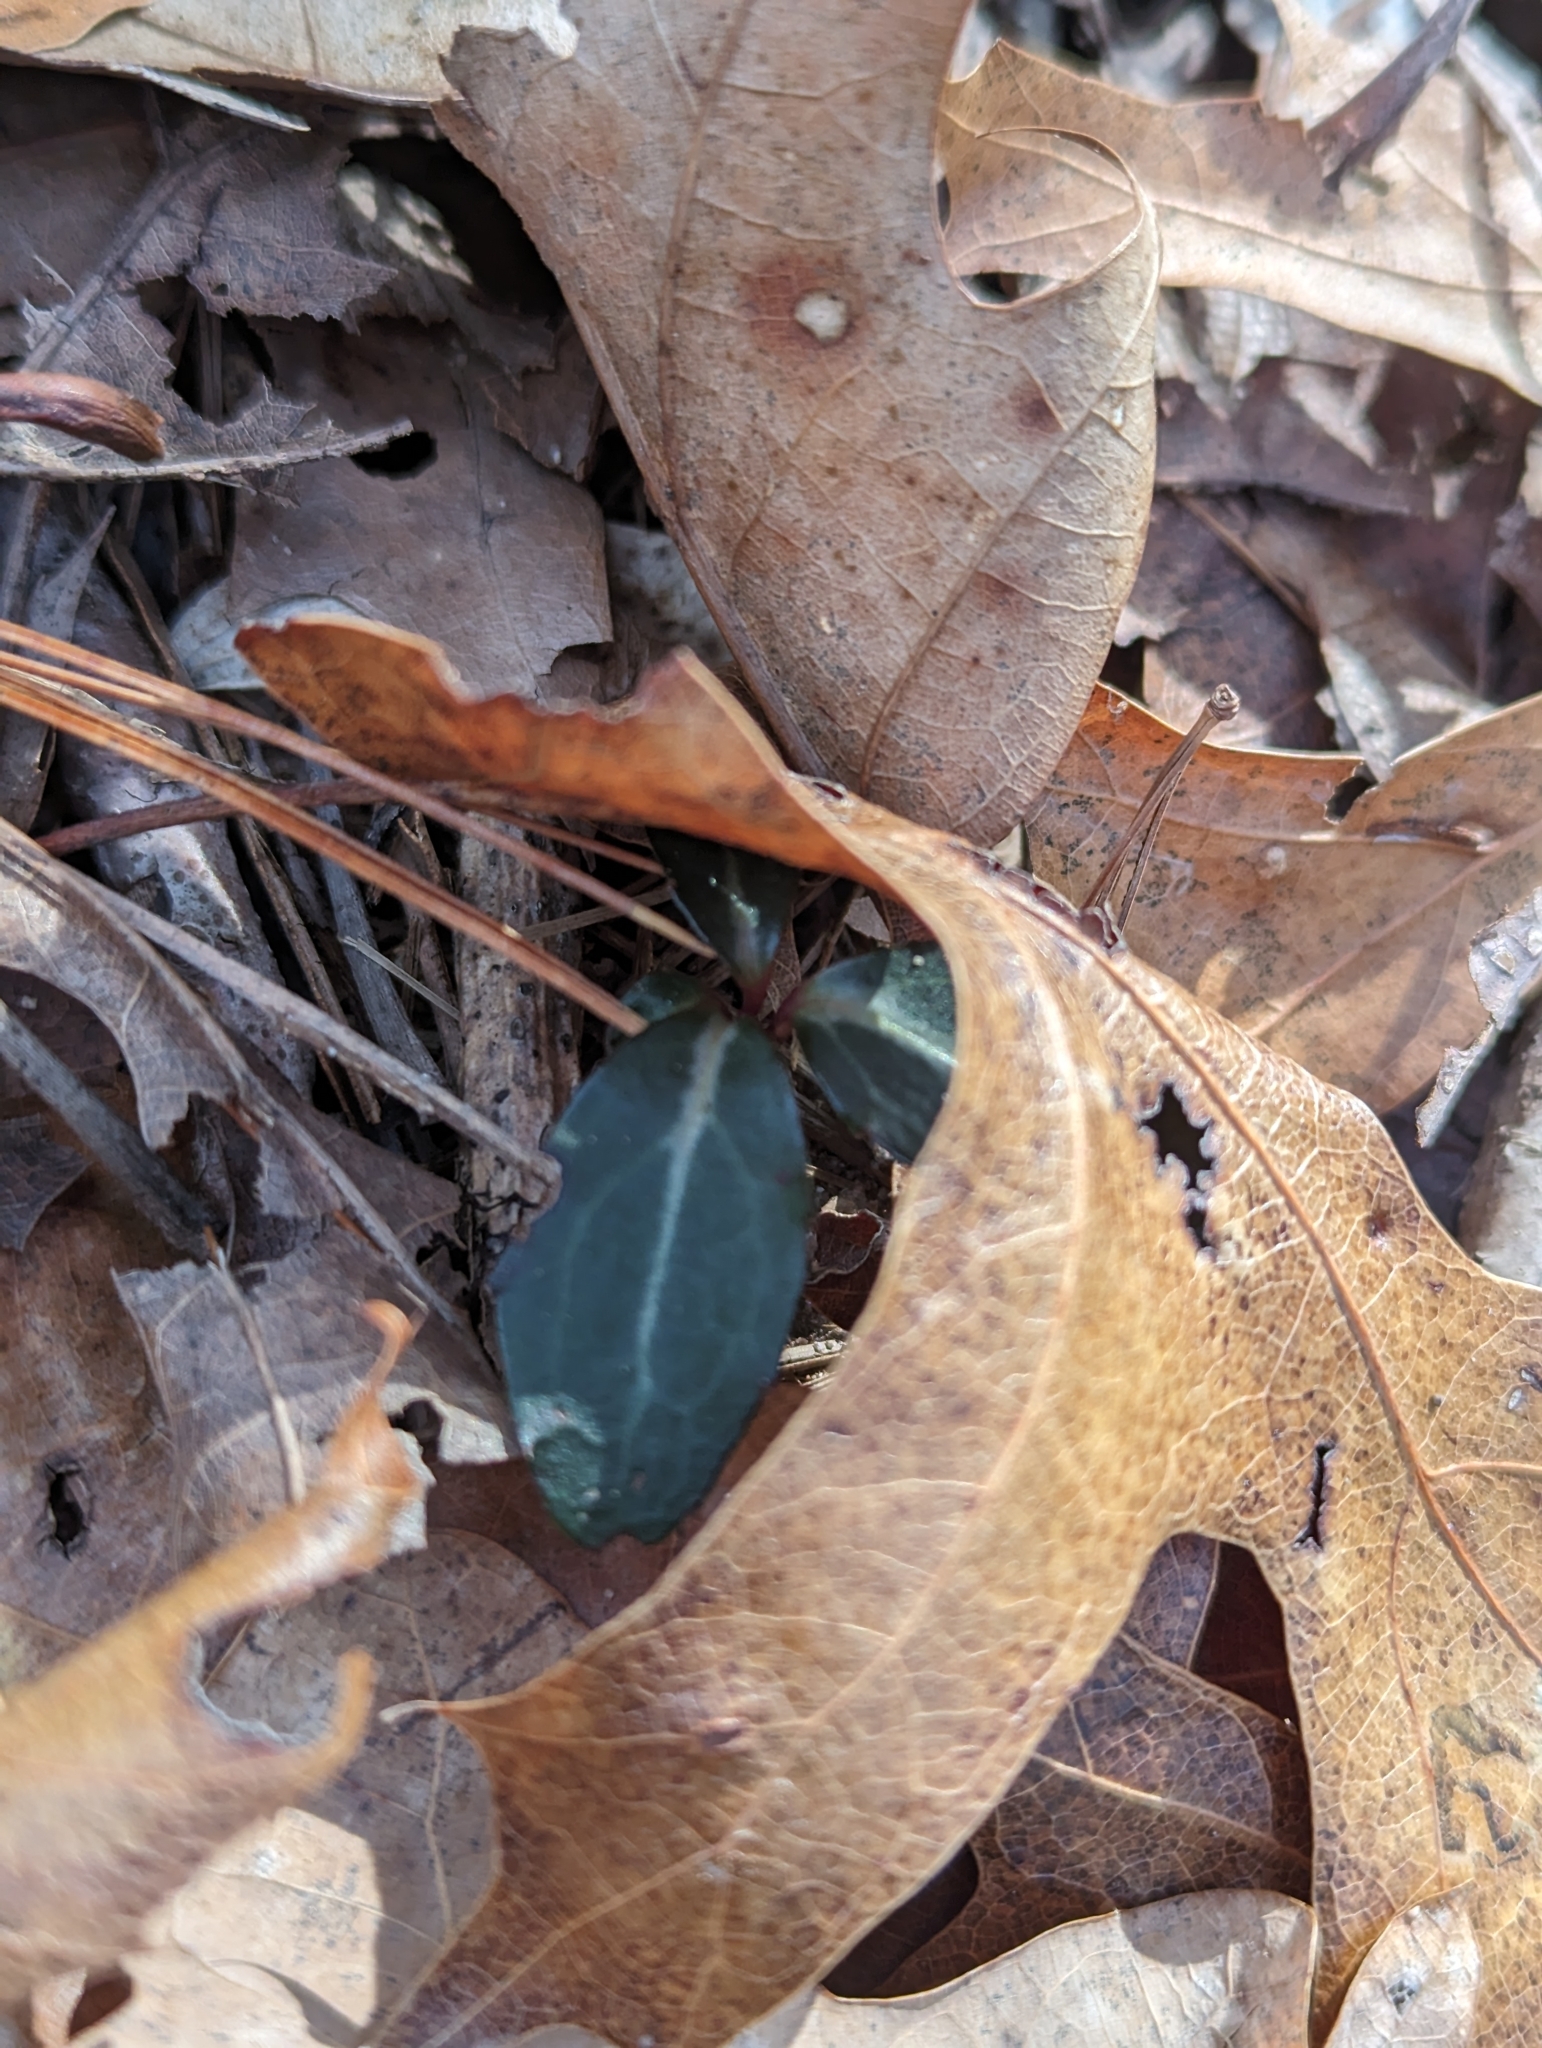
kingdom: Plantae
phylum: Tracheophyta
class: Magnoliopsida
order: Ericales
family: Ericaceae
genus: Chimaphila
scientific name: Chimaphila maculata
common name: Spotted pipsissewa
